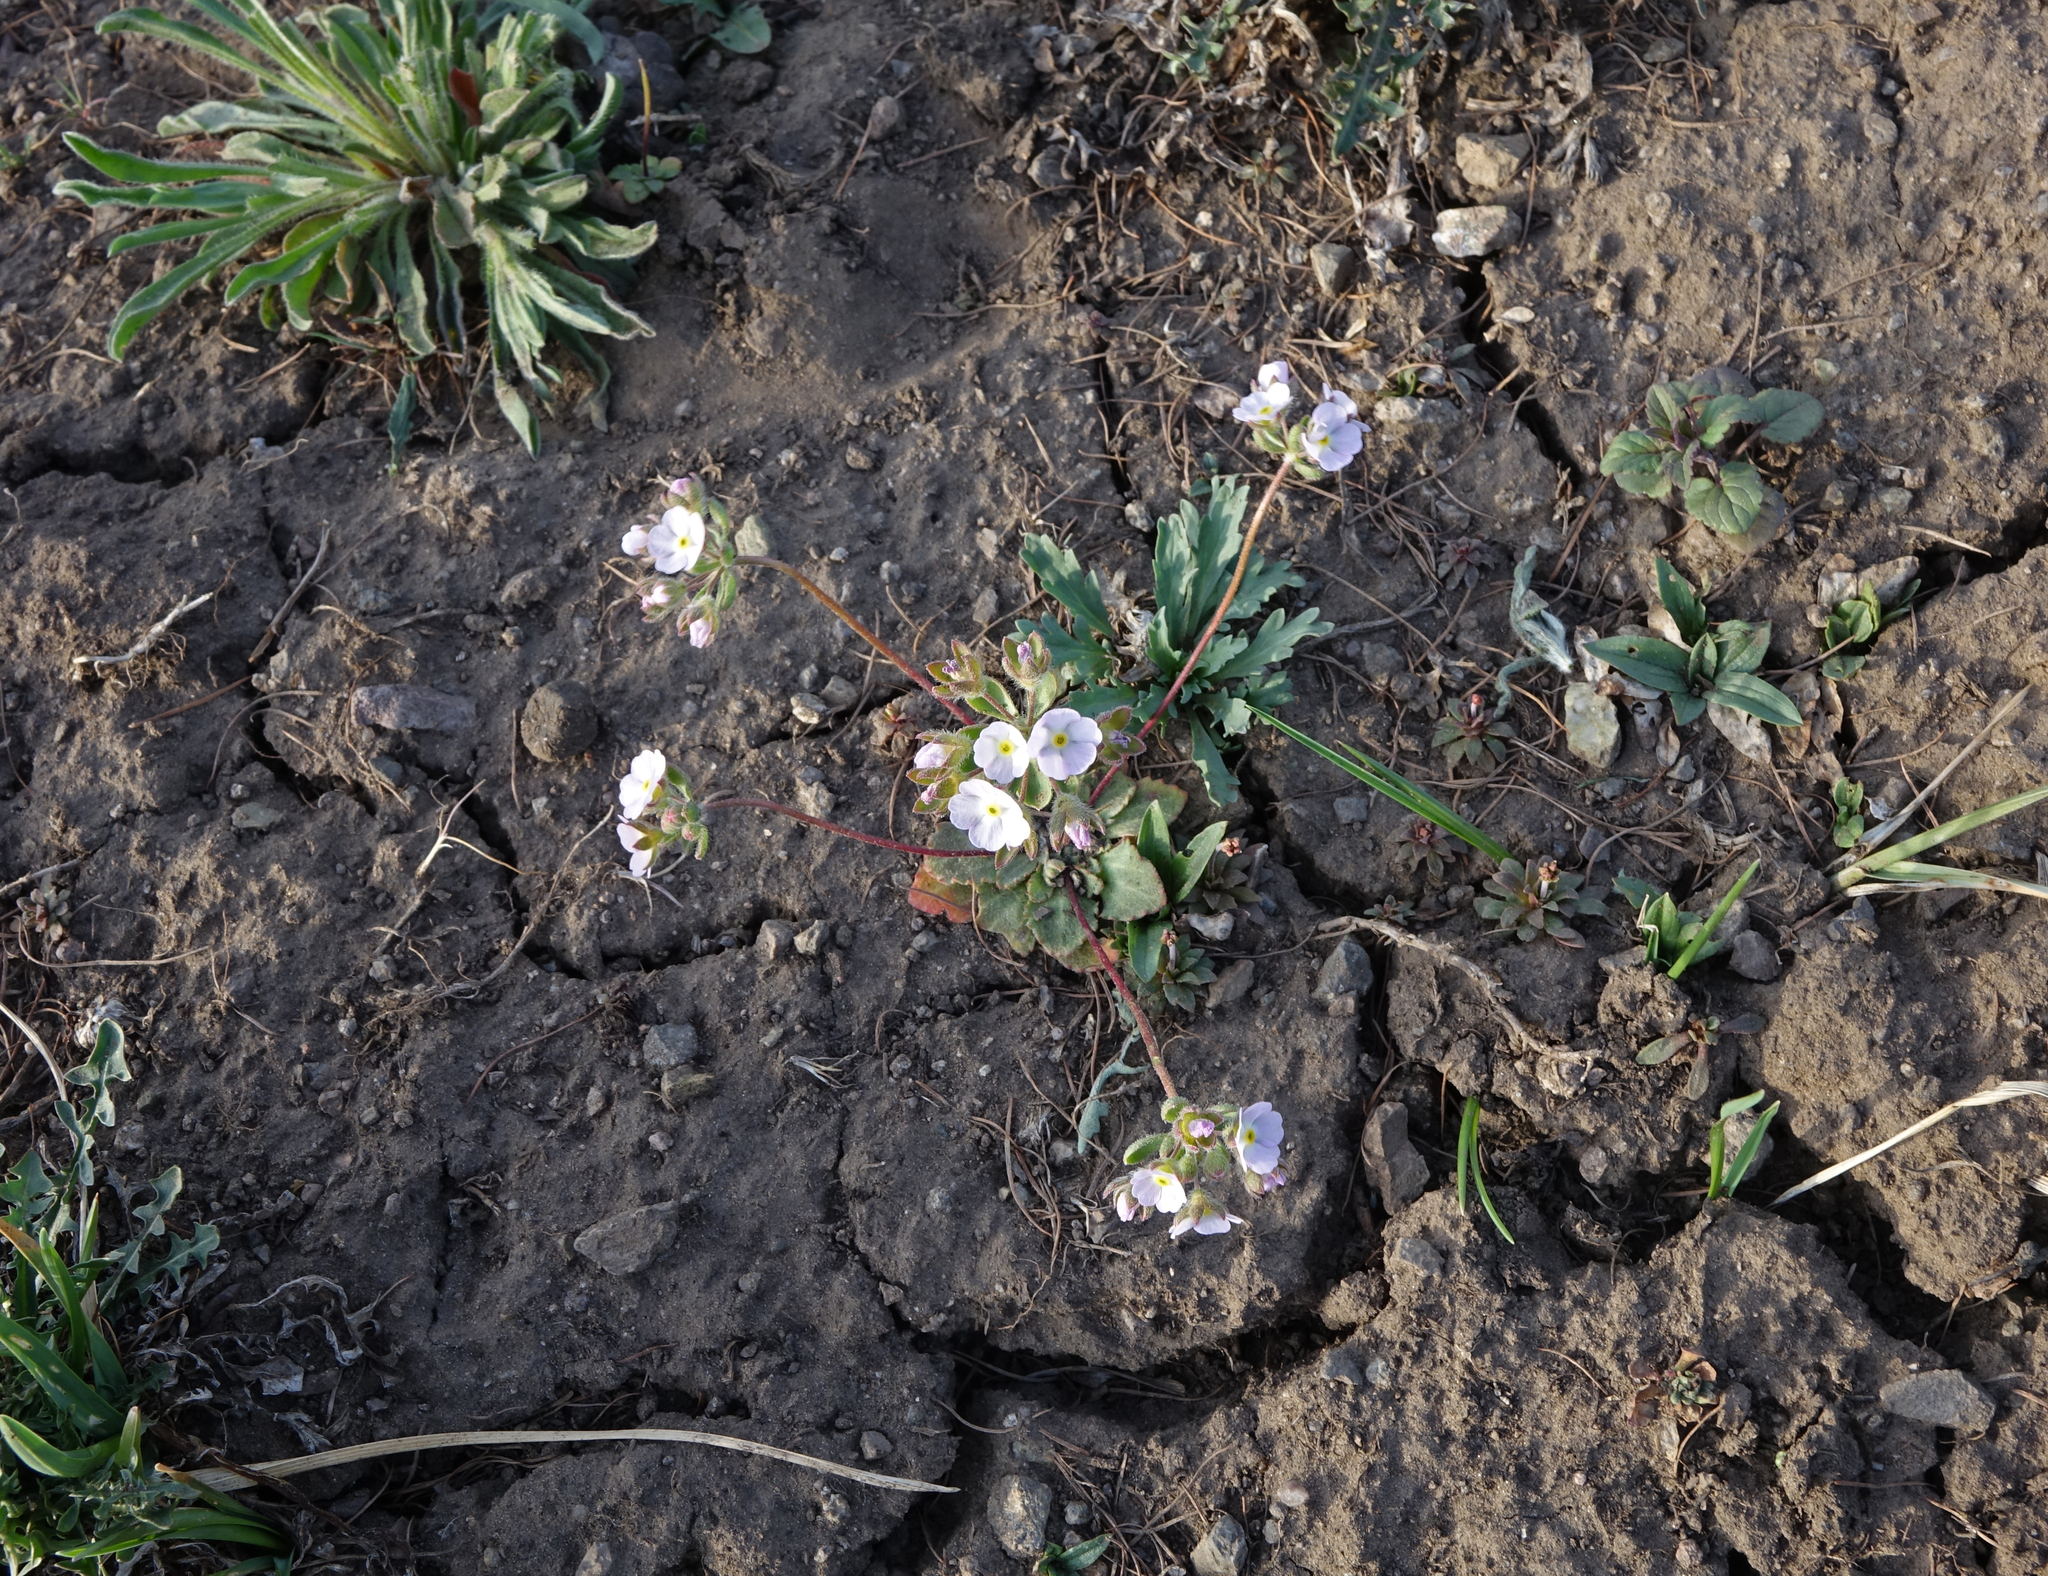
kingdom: Plantae
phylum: Tracheophyta
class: Magnoliopsida
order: Ericales
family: Primulaceae
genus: Androsace
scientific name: Androsace maxima
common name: Annual androsace
